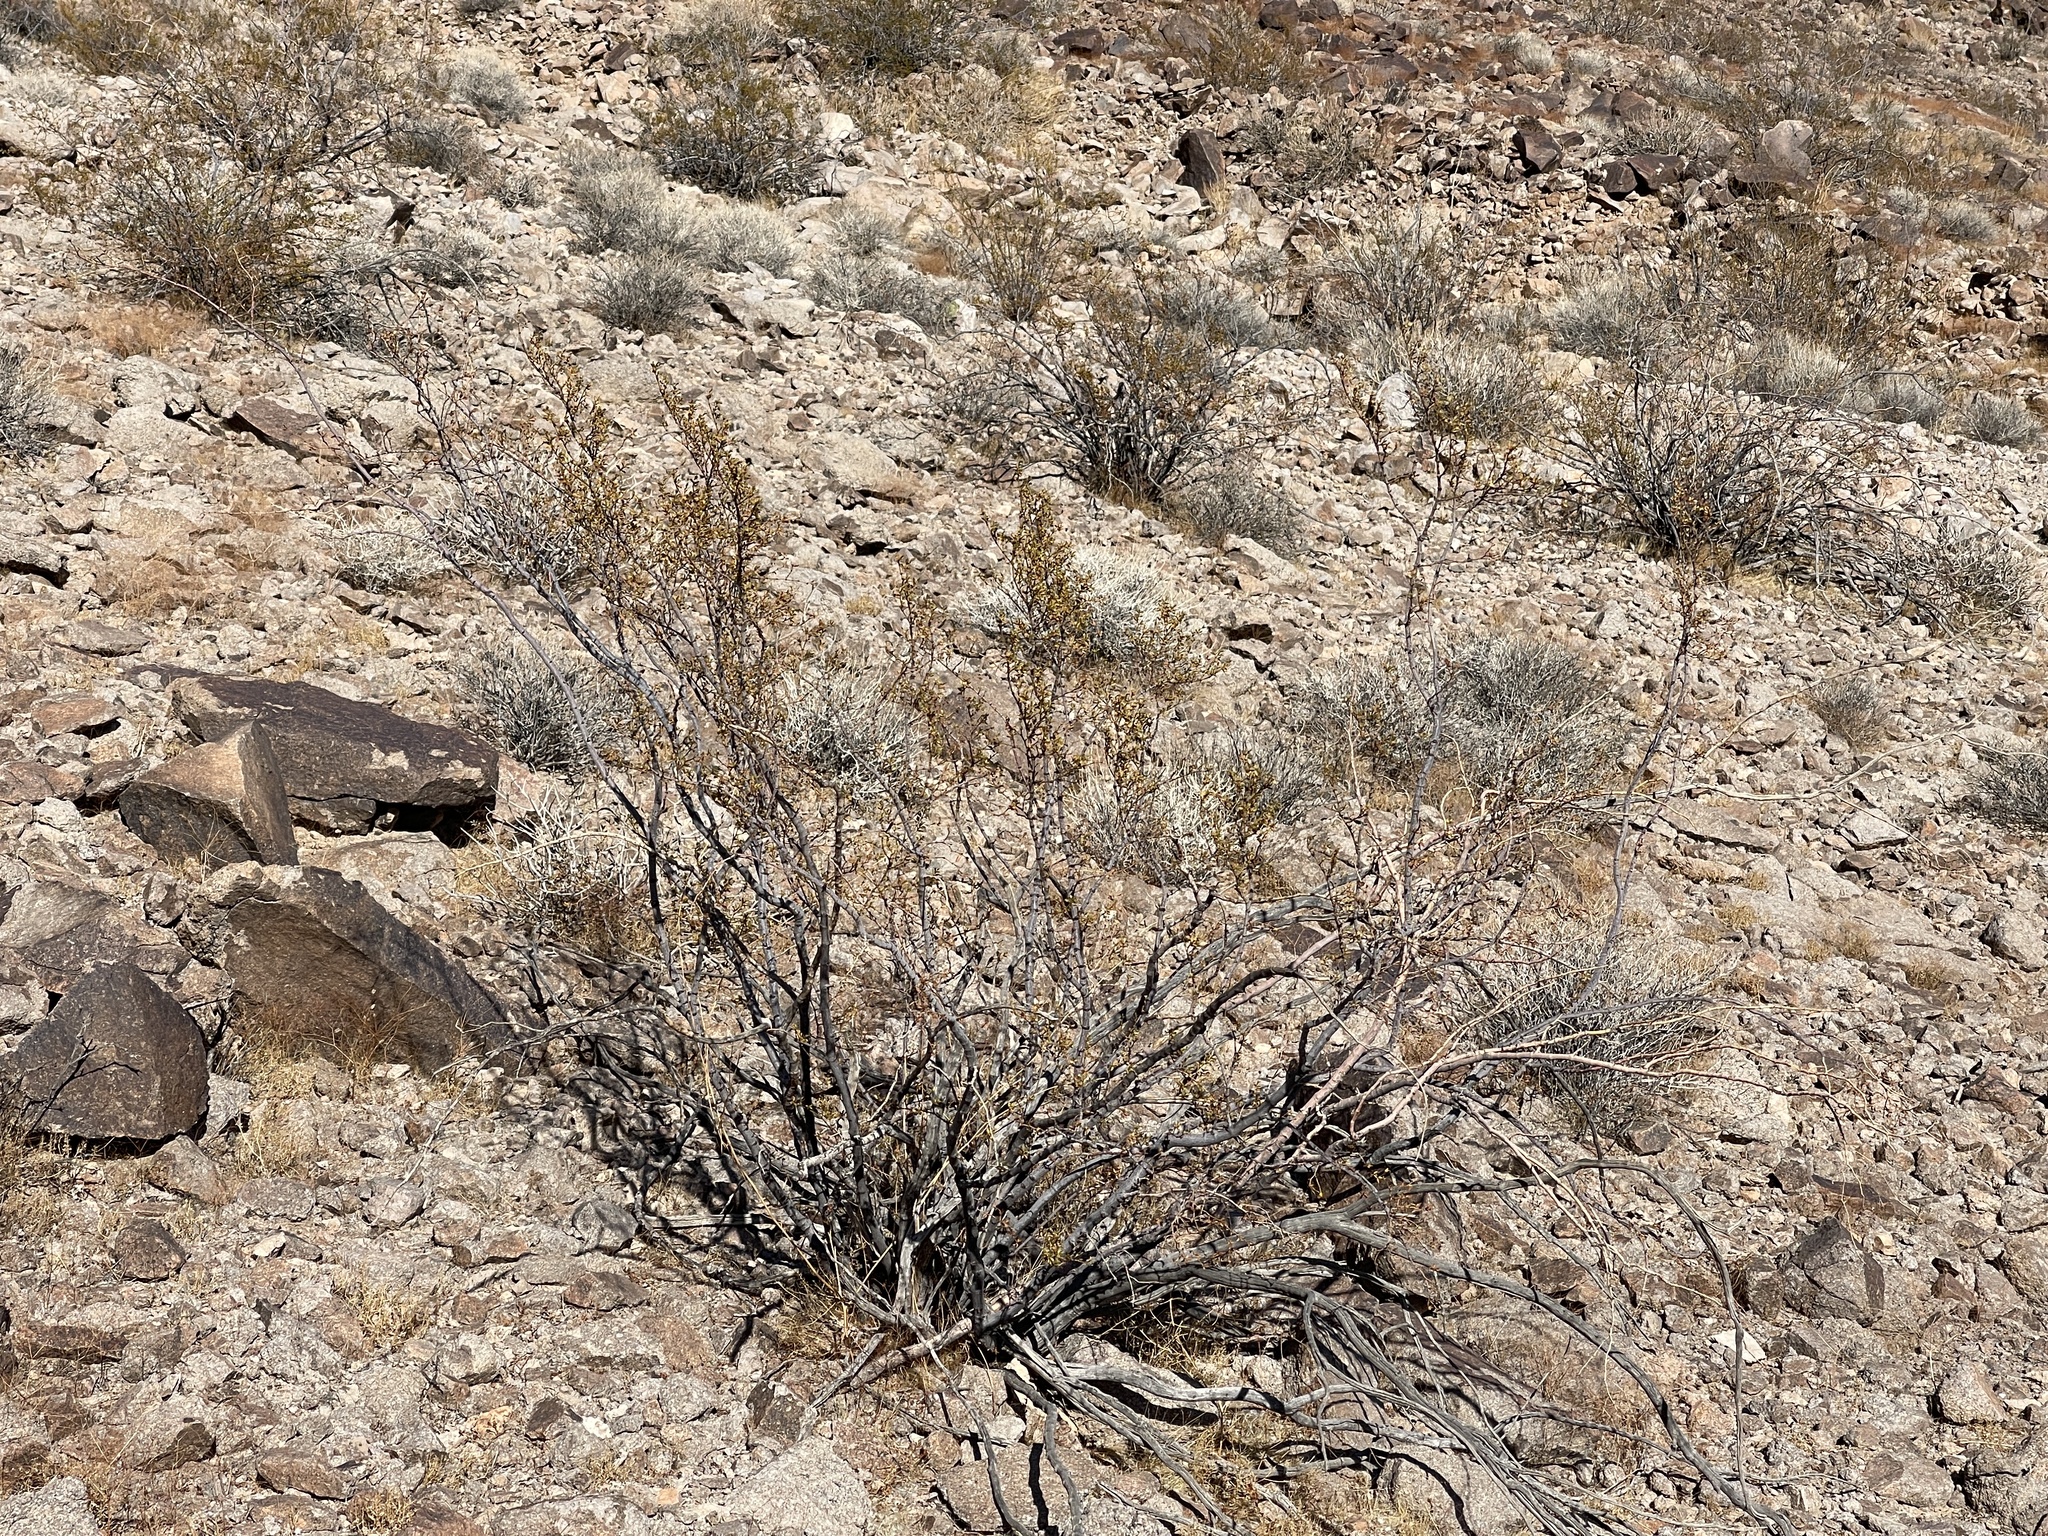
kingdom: Plantae
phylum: Tracheophyta
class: Magnoliopsida
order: Zygophyllales
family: Zygophyllaceae
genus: Larrea
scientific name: Larrea tridentata
